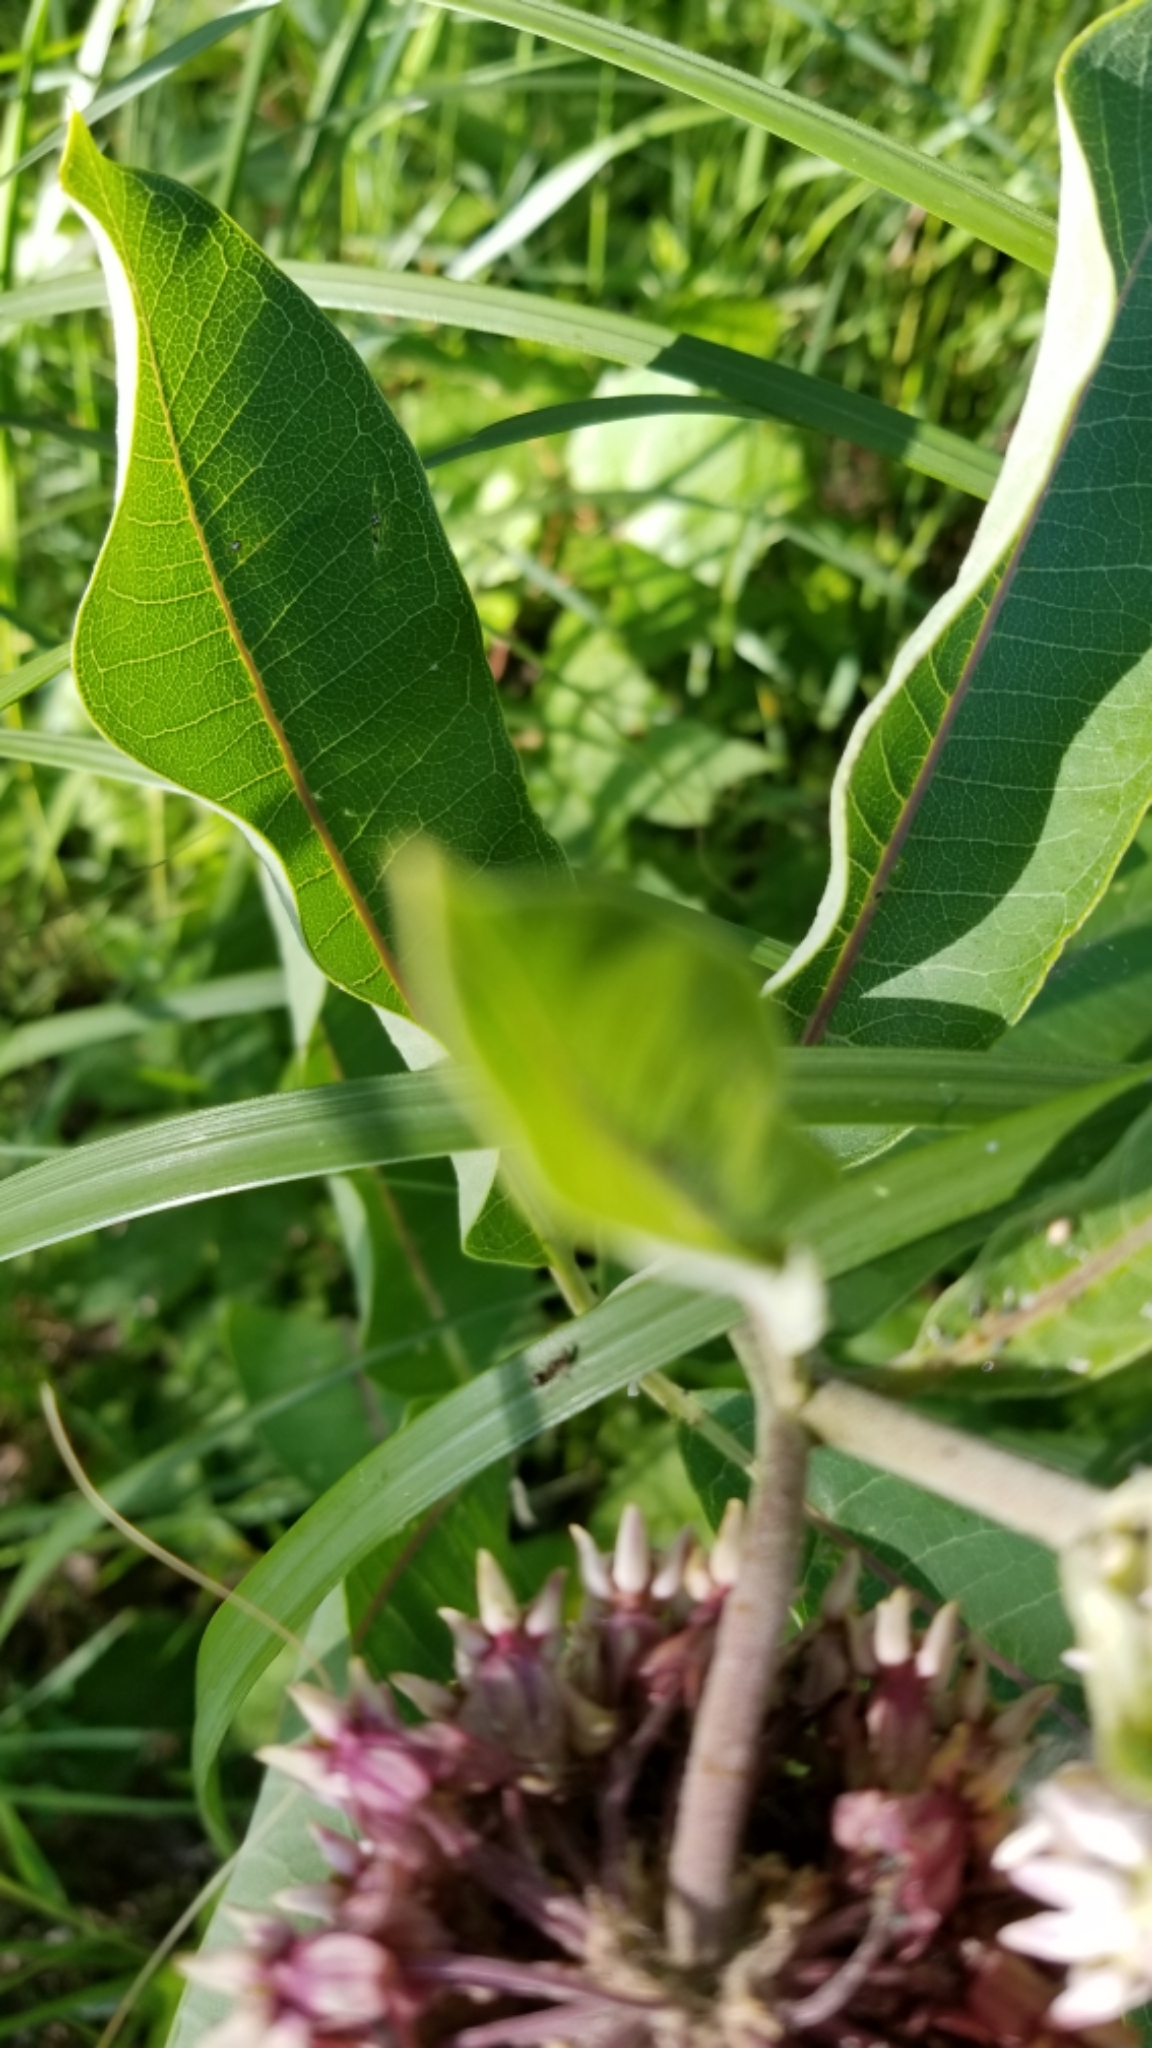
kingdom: Plantae
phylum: Tracheophyta
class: Magnoliopsida
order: Gentianales
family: Apocynaceae
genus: Asclepias
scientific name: Asclepias syriaca
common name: Common milkweed
